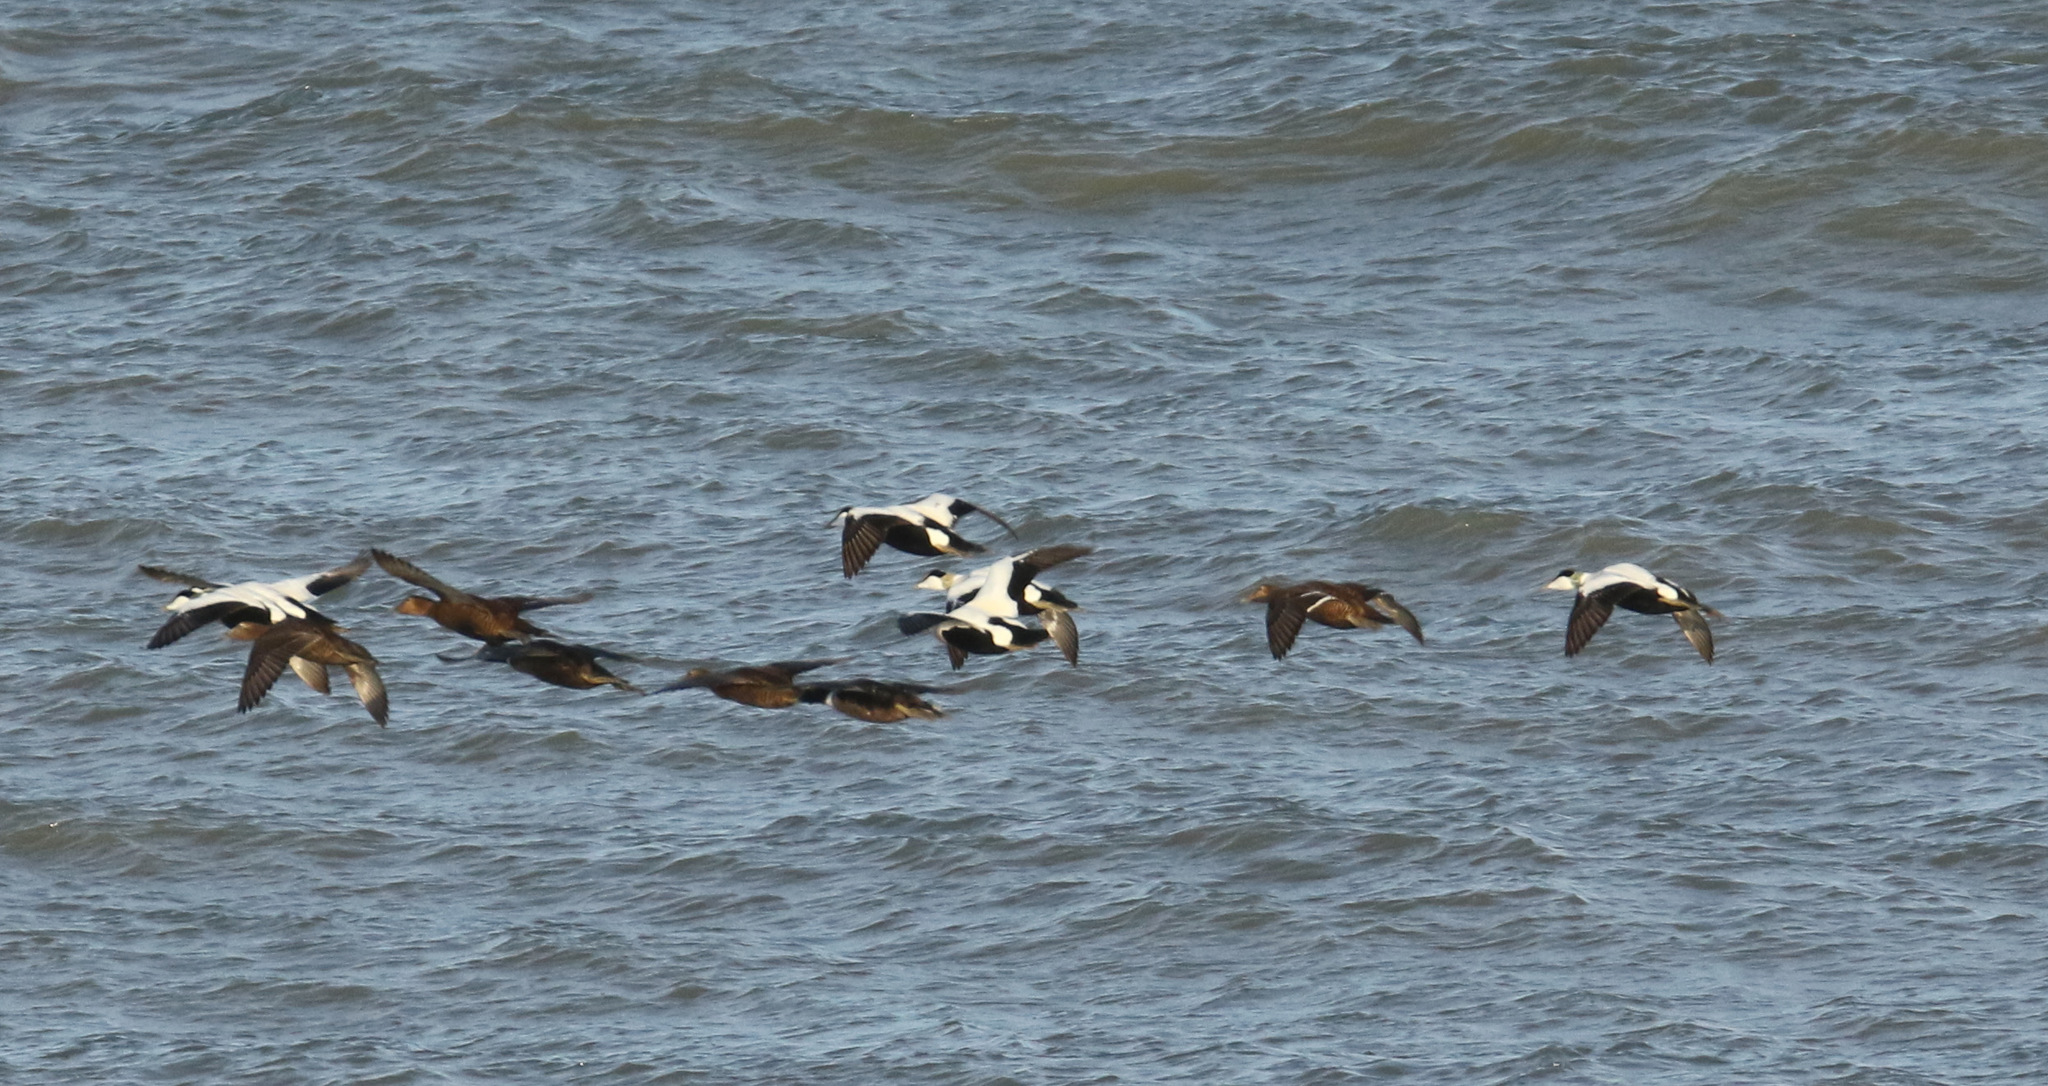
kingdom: Animalia
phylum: Chordata
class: Aves
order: Anseriformes
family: Anatidae
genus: Somateria
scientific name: Somateria mollissima
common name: Common eider
